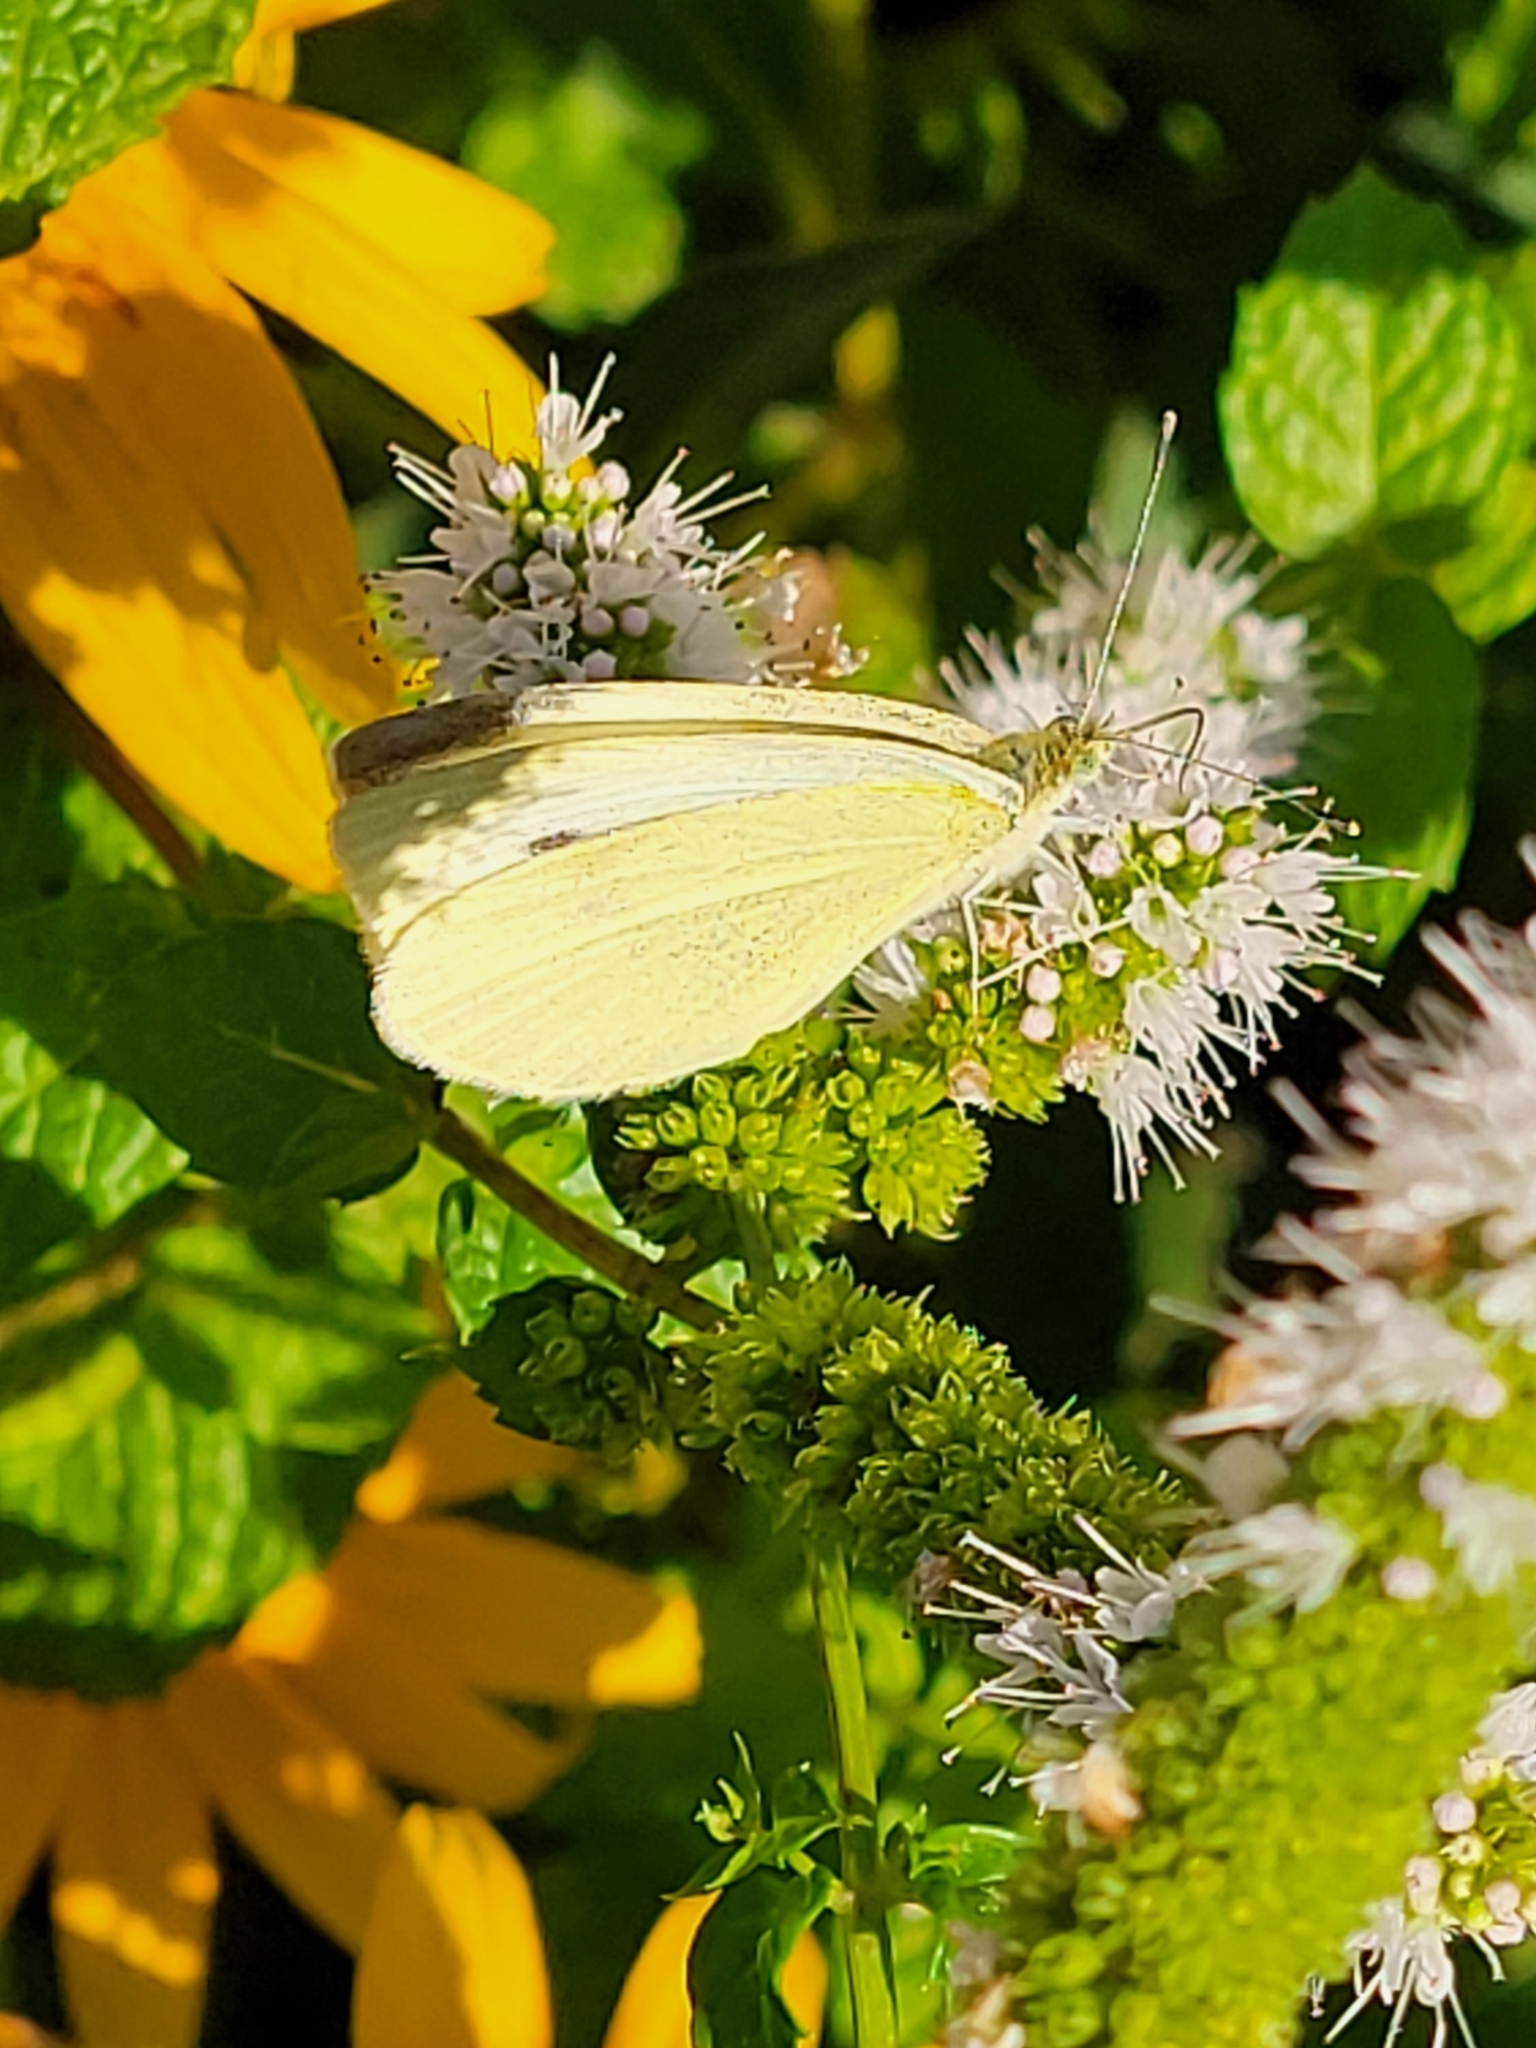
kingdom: Animalia
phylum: Arthropoda
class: Insecta
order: Lepidoptera
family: Pieridae
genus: Pieris
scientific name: Pieris rapae
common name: Small white
